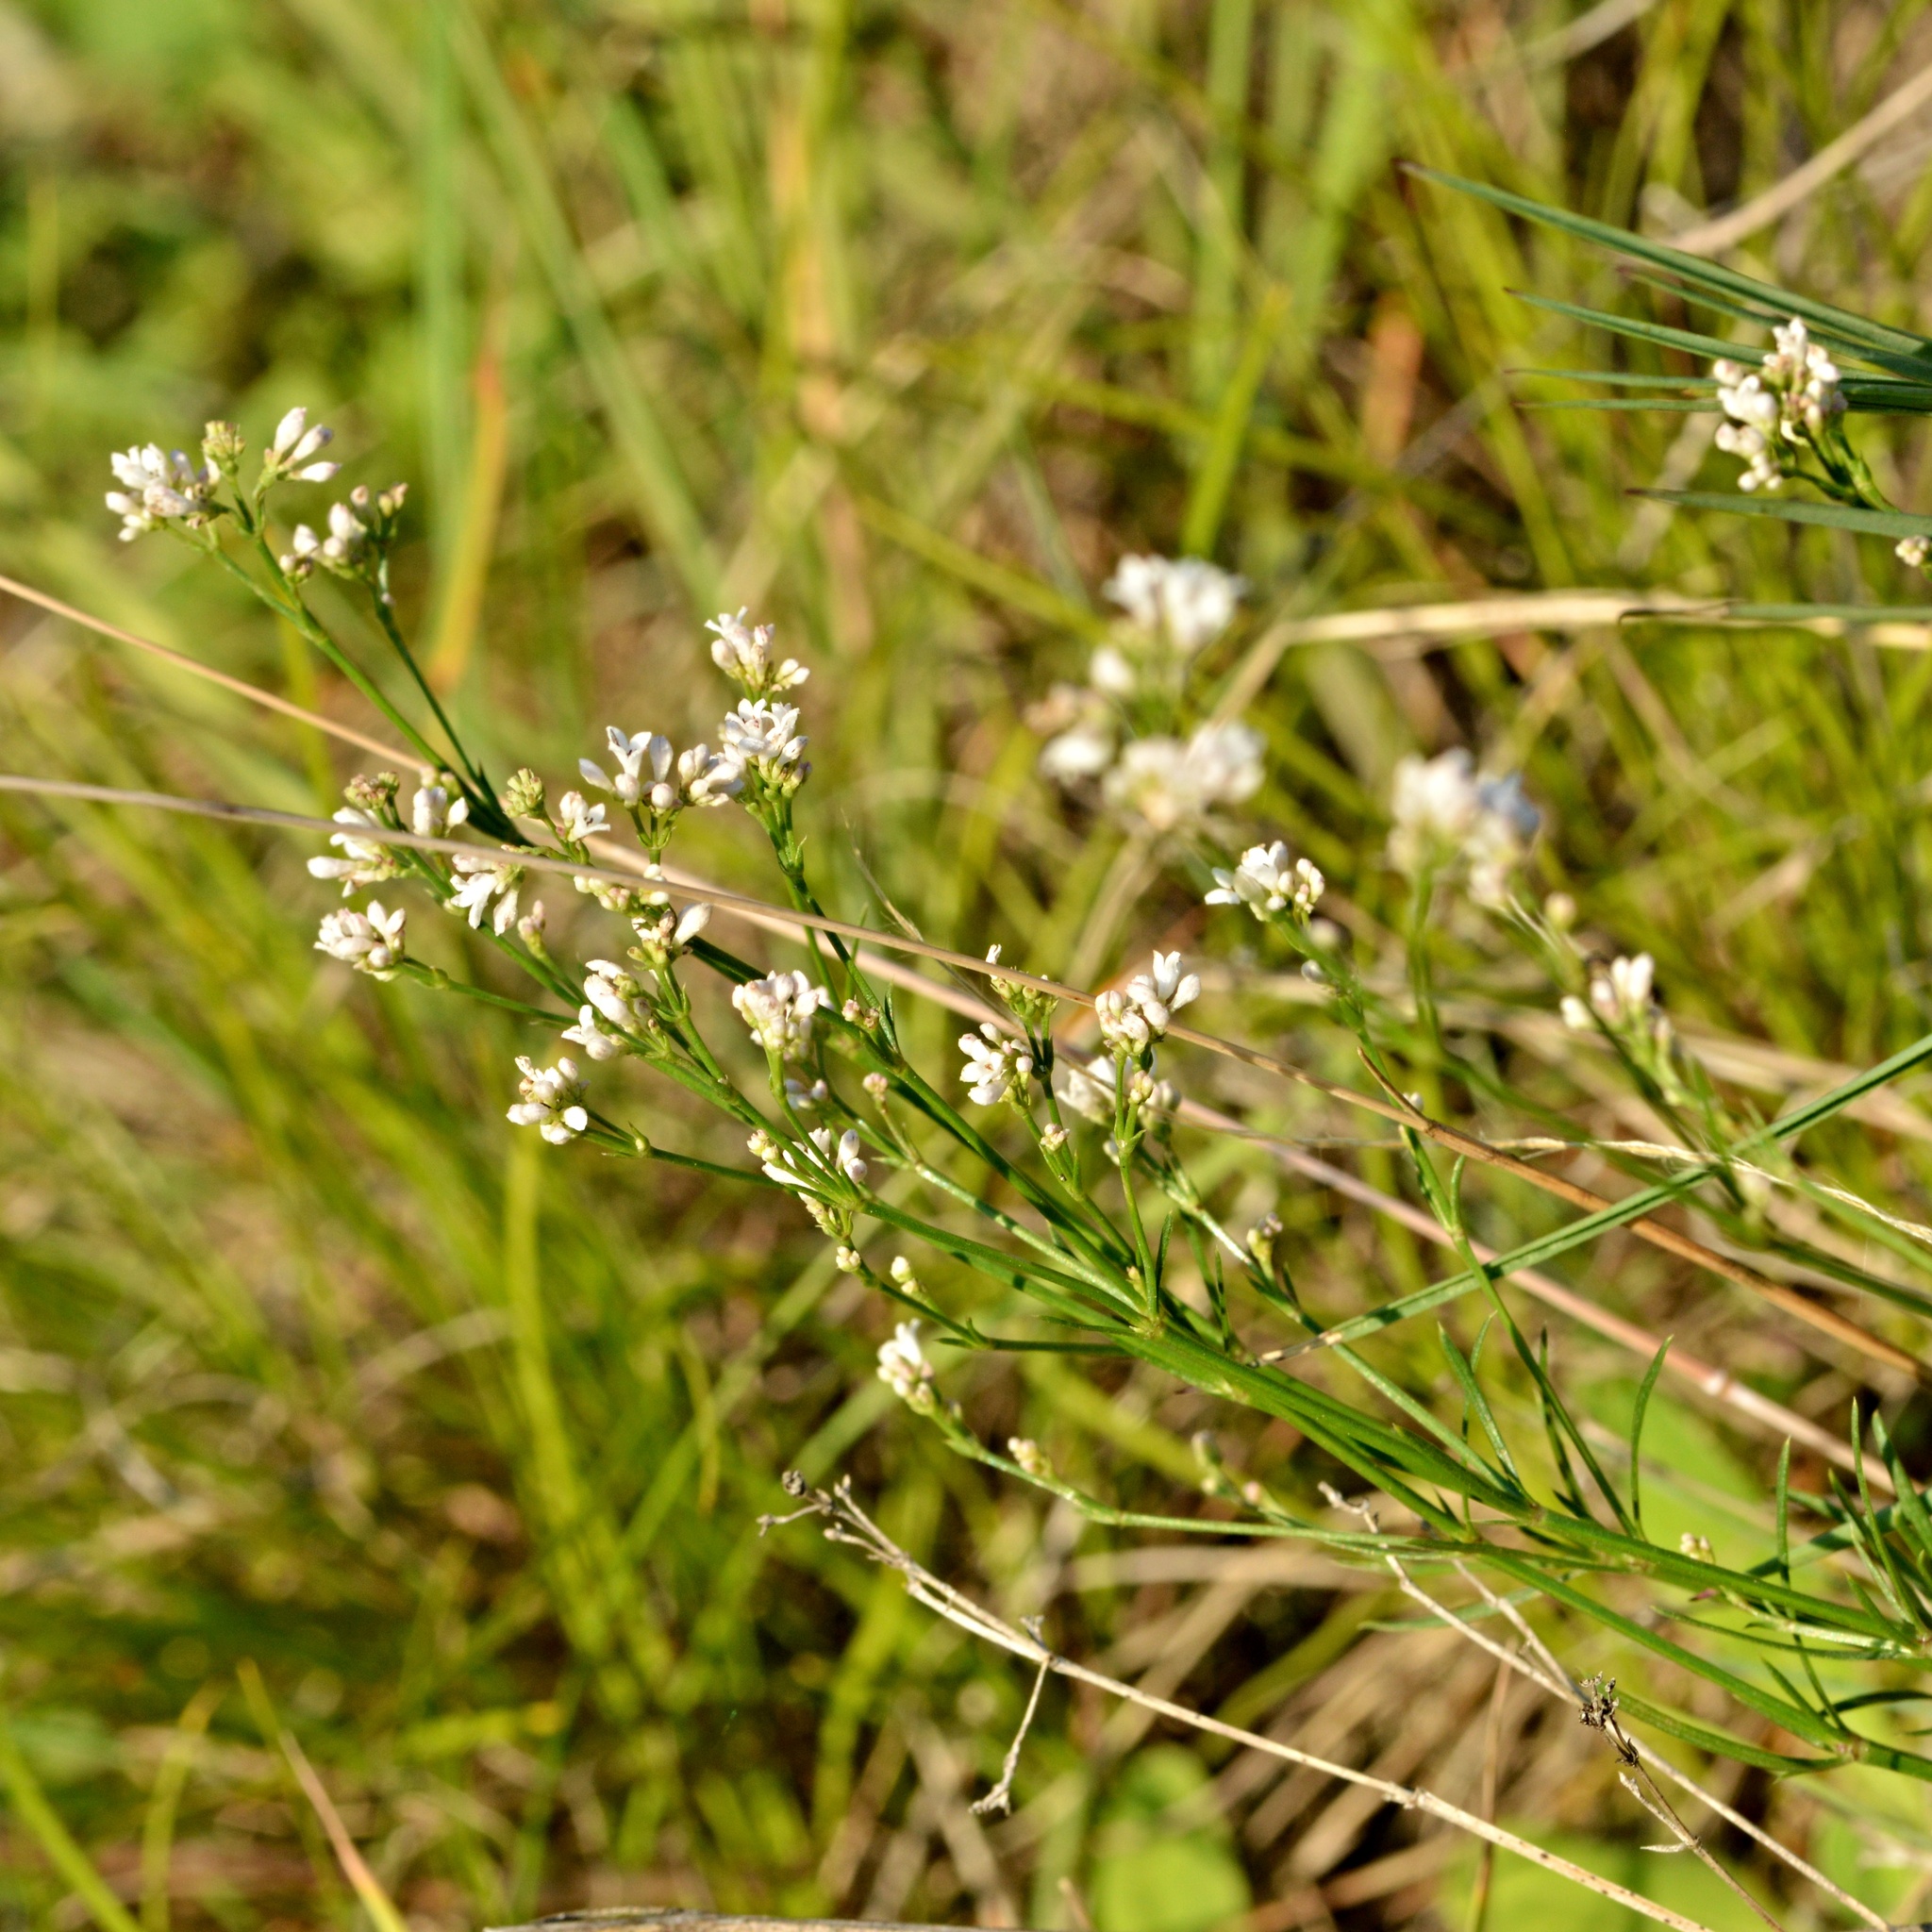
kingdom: Plantae
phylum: Tracheophyta
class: Magnoliopsida
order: Gentianales
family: Rubiaceae
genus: Cynanchica
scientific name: Cynanchica pyrenaica
